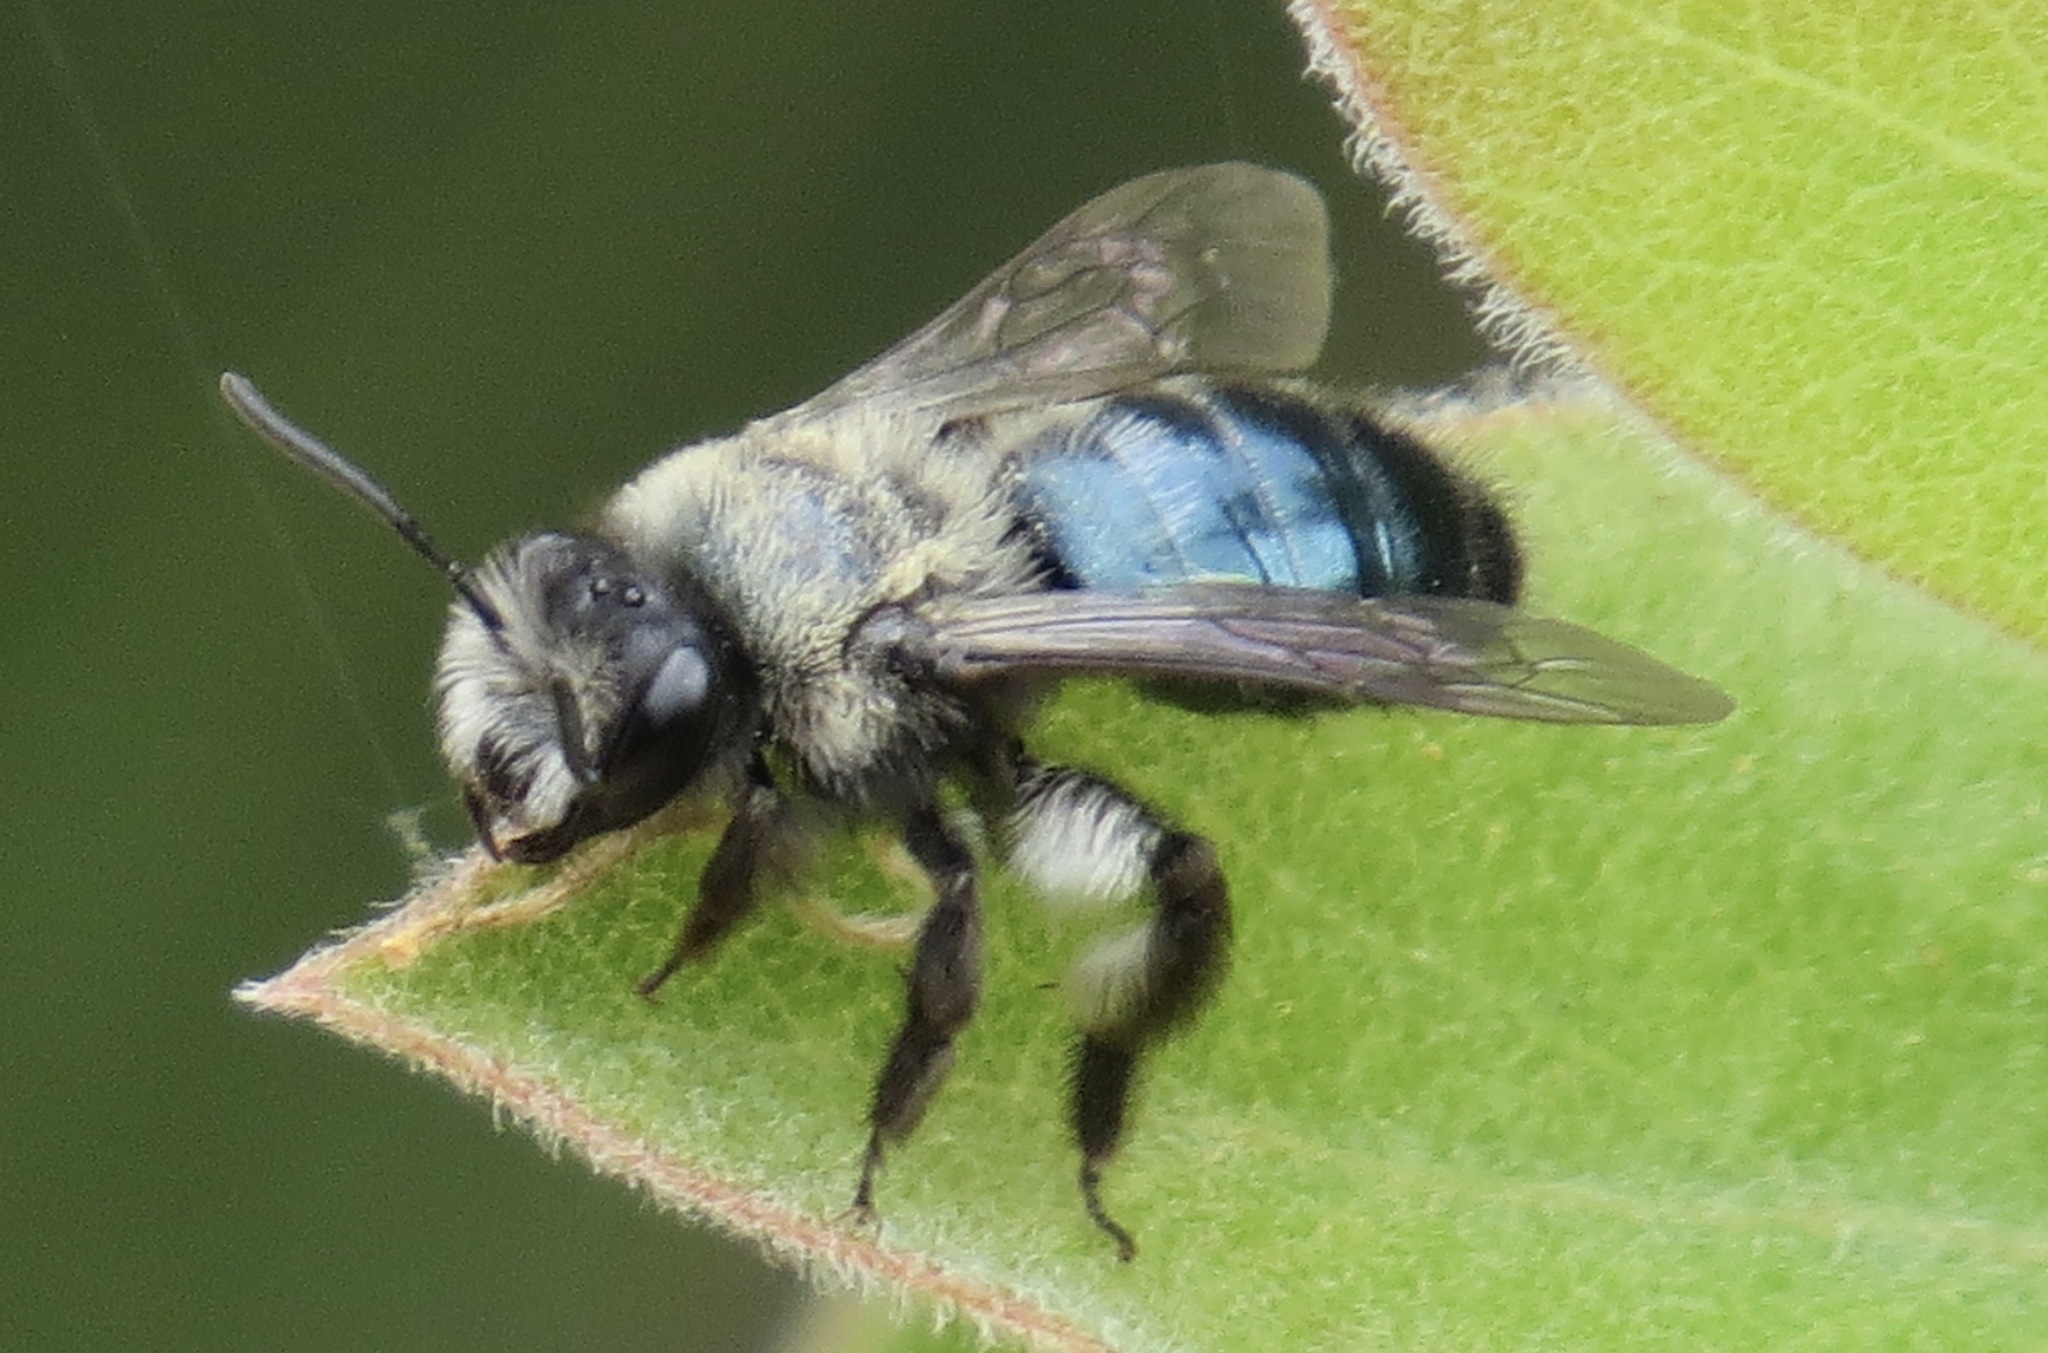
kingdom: Animalia
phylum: Arthropoda
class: Insecta
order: Hymenoptera
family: Andrenidae
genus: Andrena
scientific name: Andrena cerasifolii
